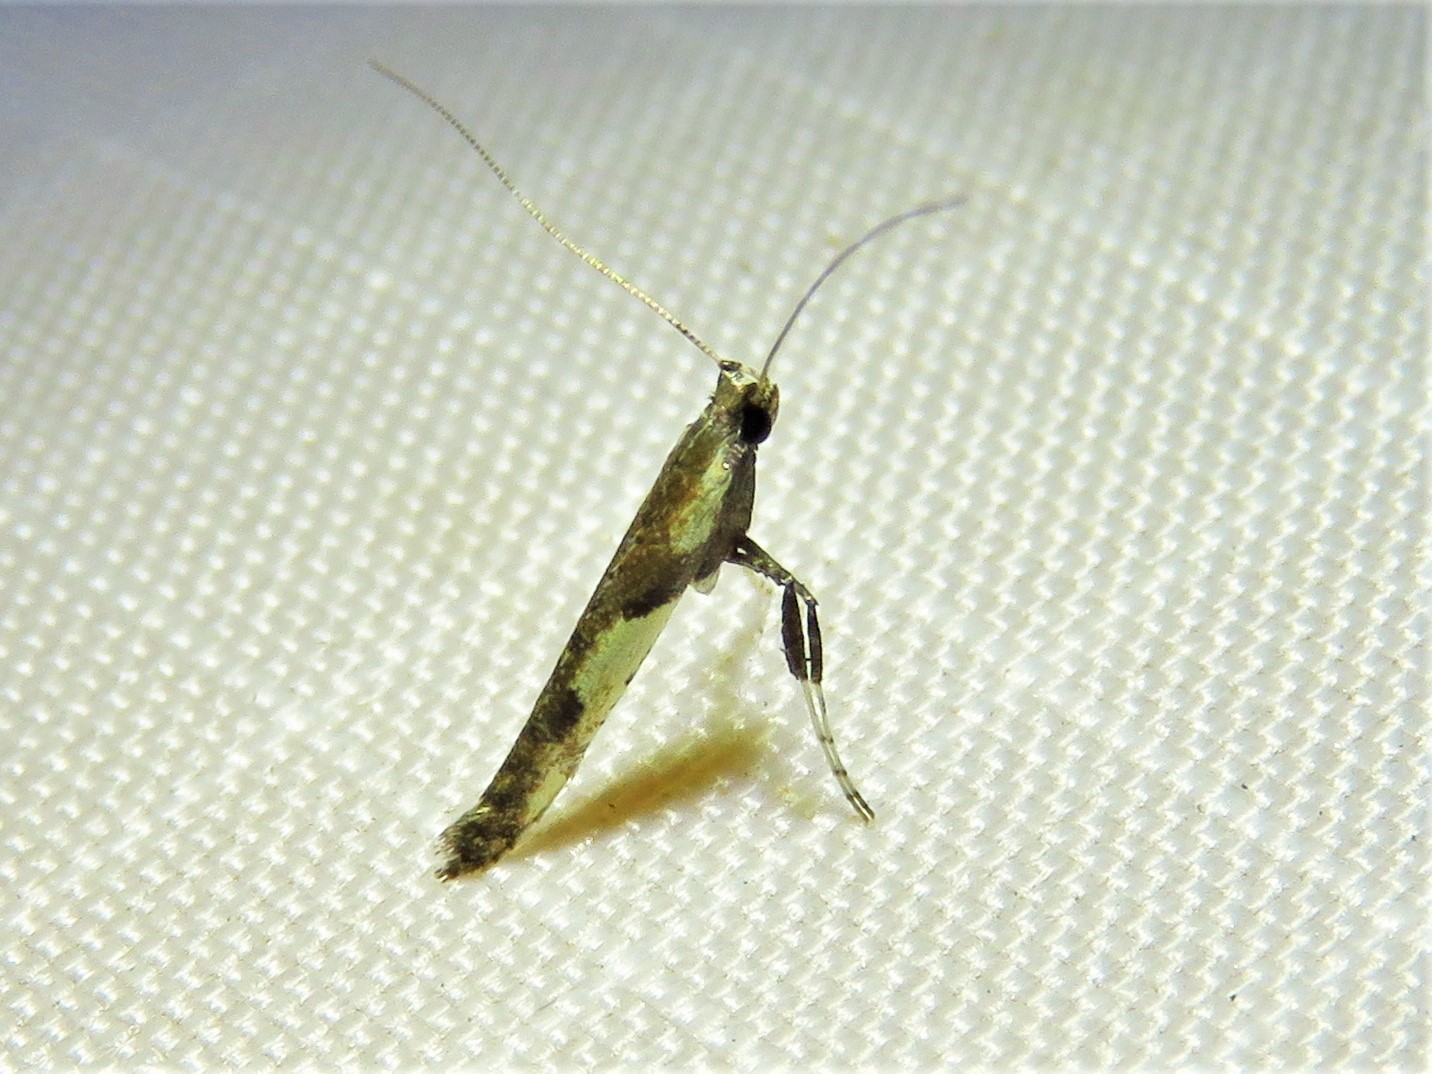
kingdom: Animalia
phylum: Arthropoda
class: Insecta
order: Lepidoptera
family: Gracillariidae
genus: Caloptilia
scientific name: Caloptilia blandella
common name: Walnut caloptilia moth
